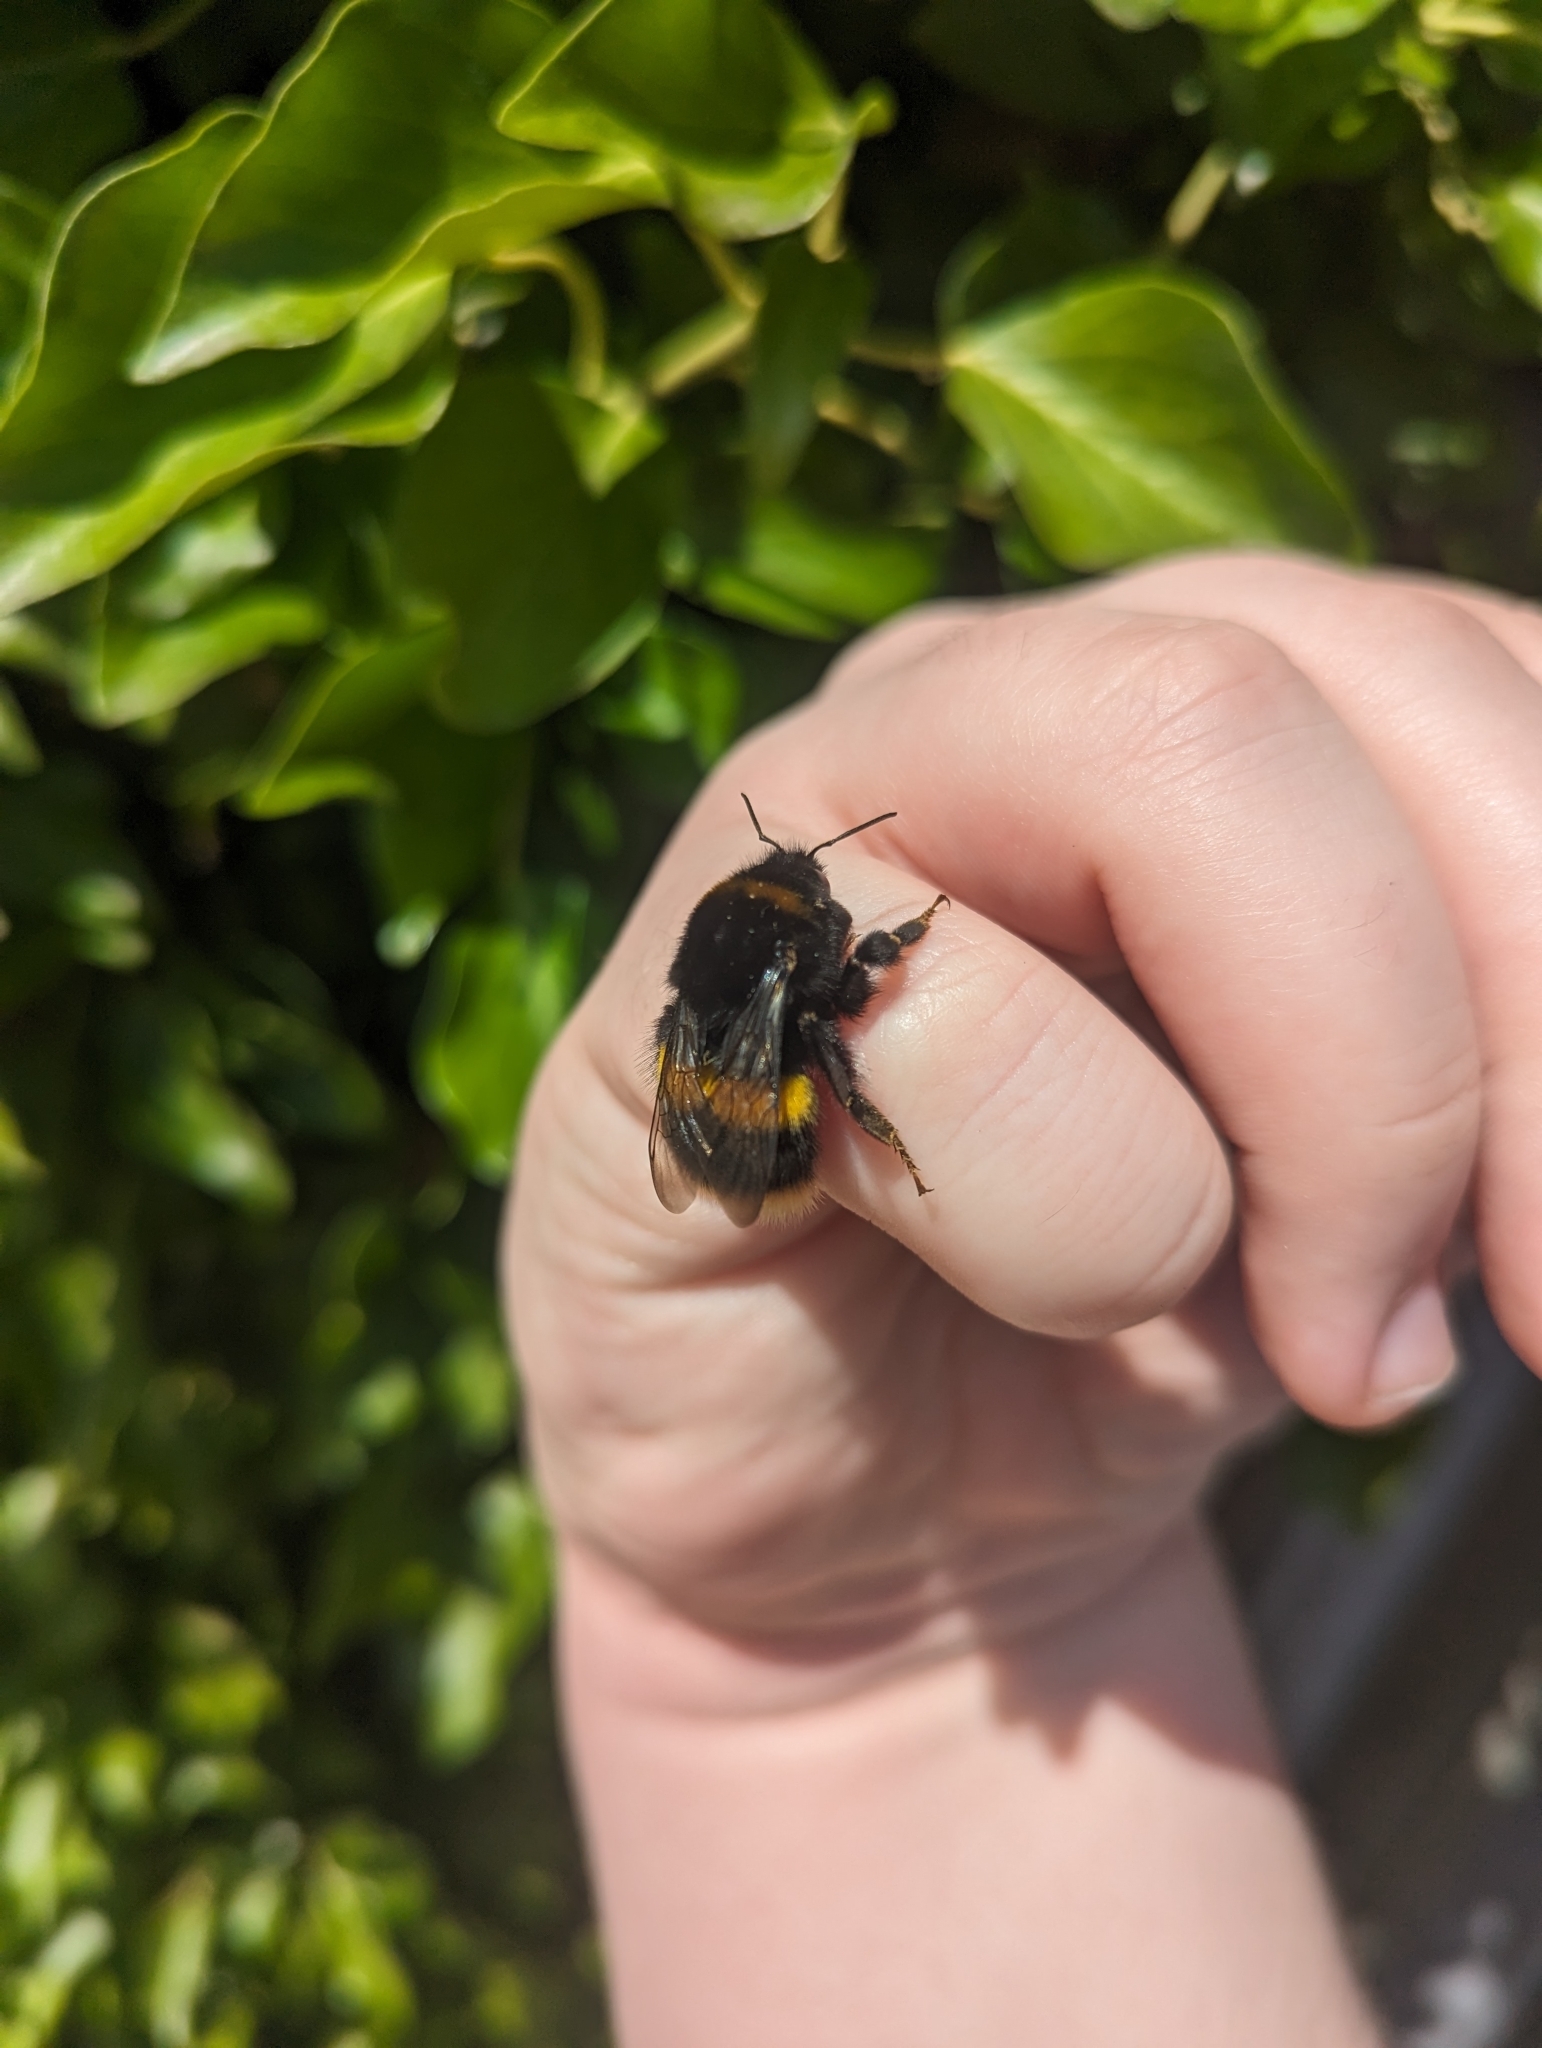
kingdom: Animalia
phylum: Arthropoda
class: Insecta
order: Hymenoptera
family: Apidae
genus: Bombus
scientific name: Bombus terrestris
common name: Buff-tailed bumblebee
